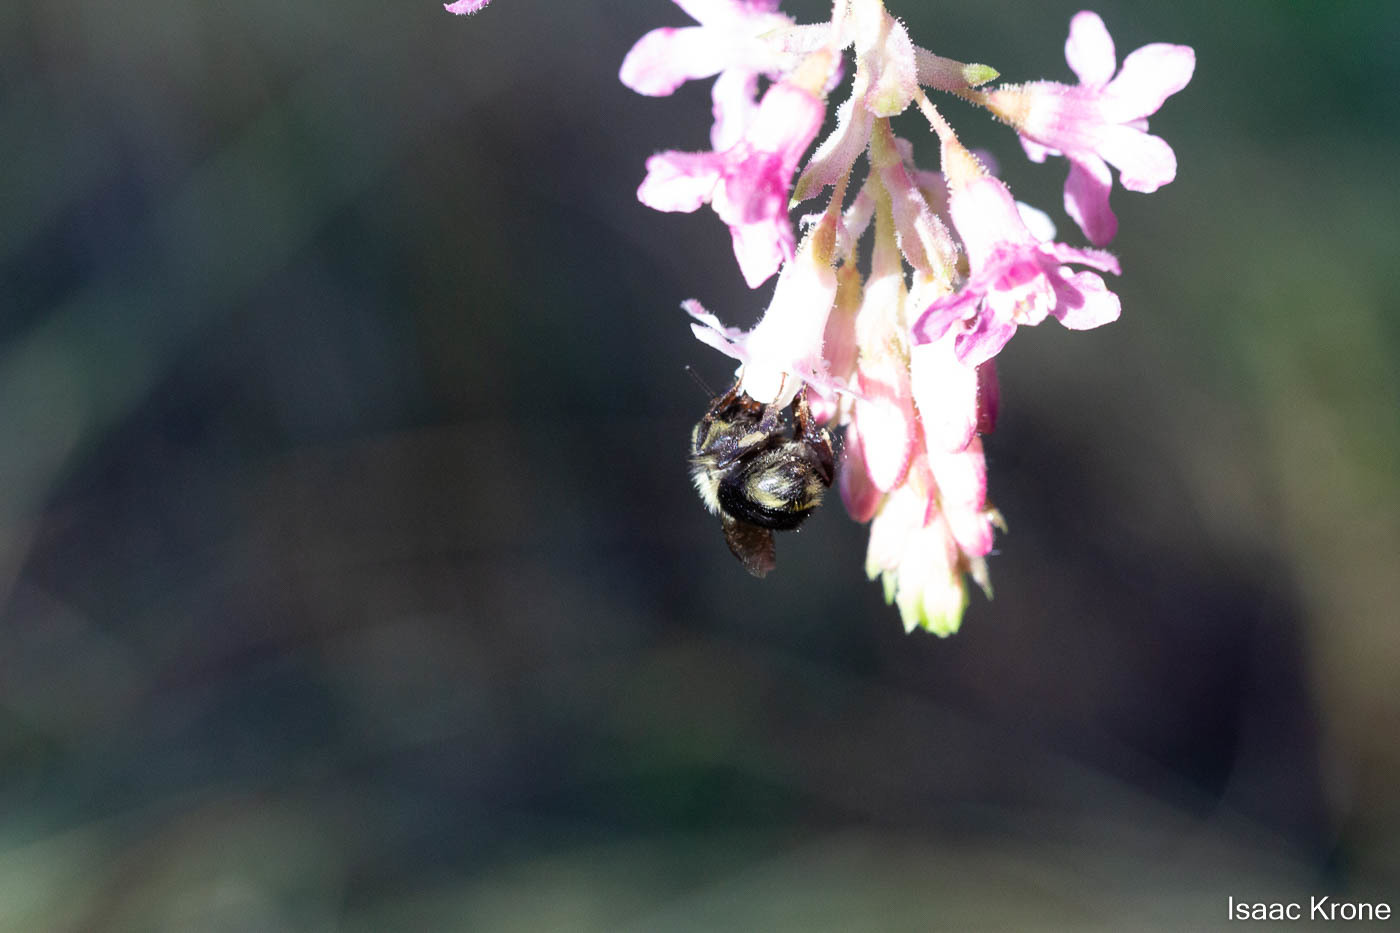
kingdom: Animalia
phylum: Arthropoda
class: Insecta
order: Hymenoptera
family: Apidae
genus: Bombus
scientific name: Bombus melanopygus
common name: Black tail bumble bee
